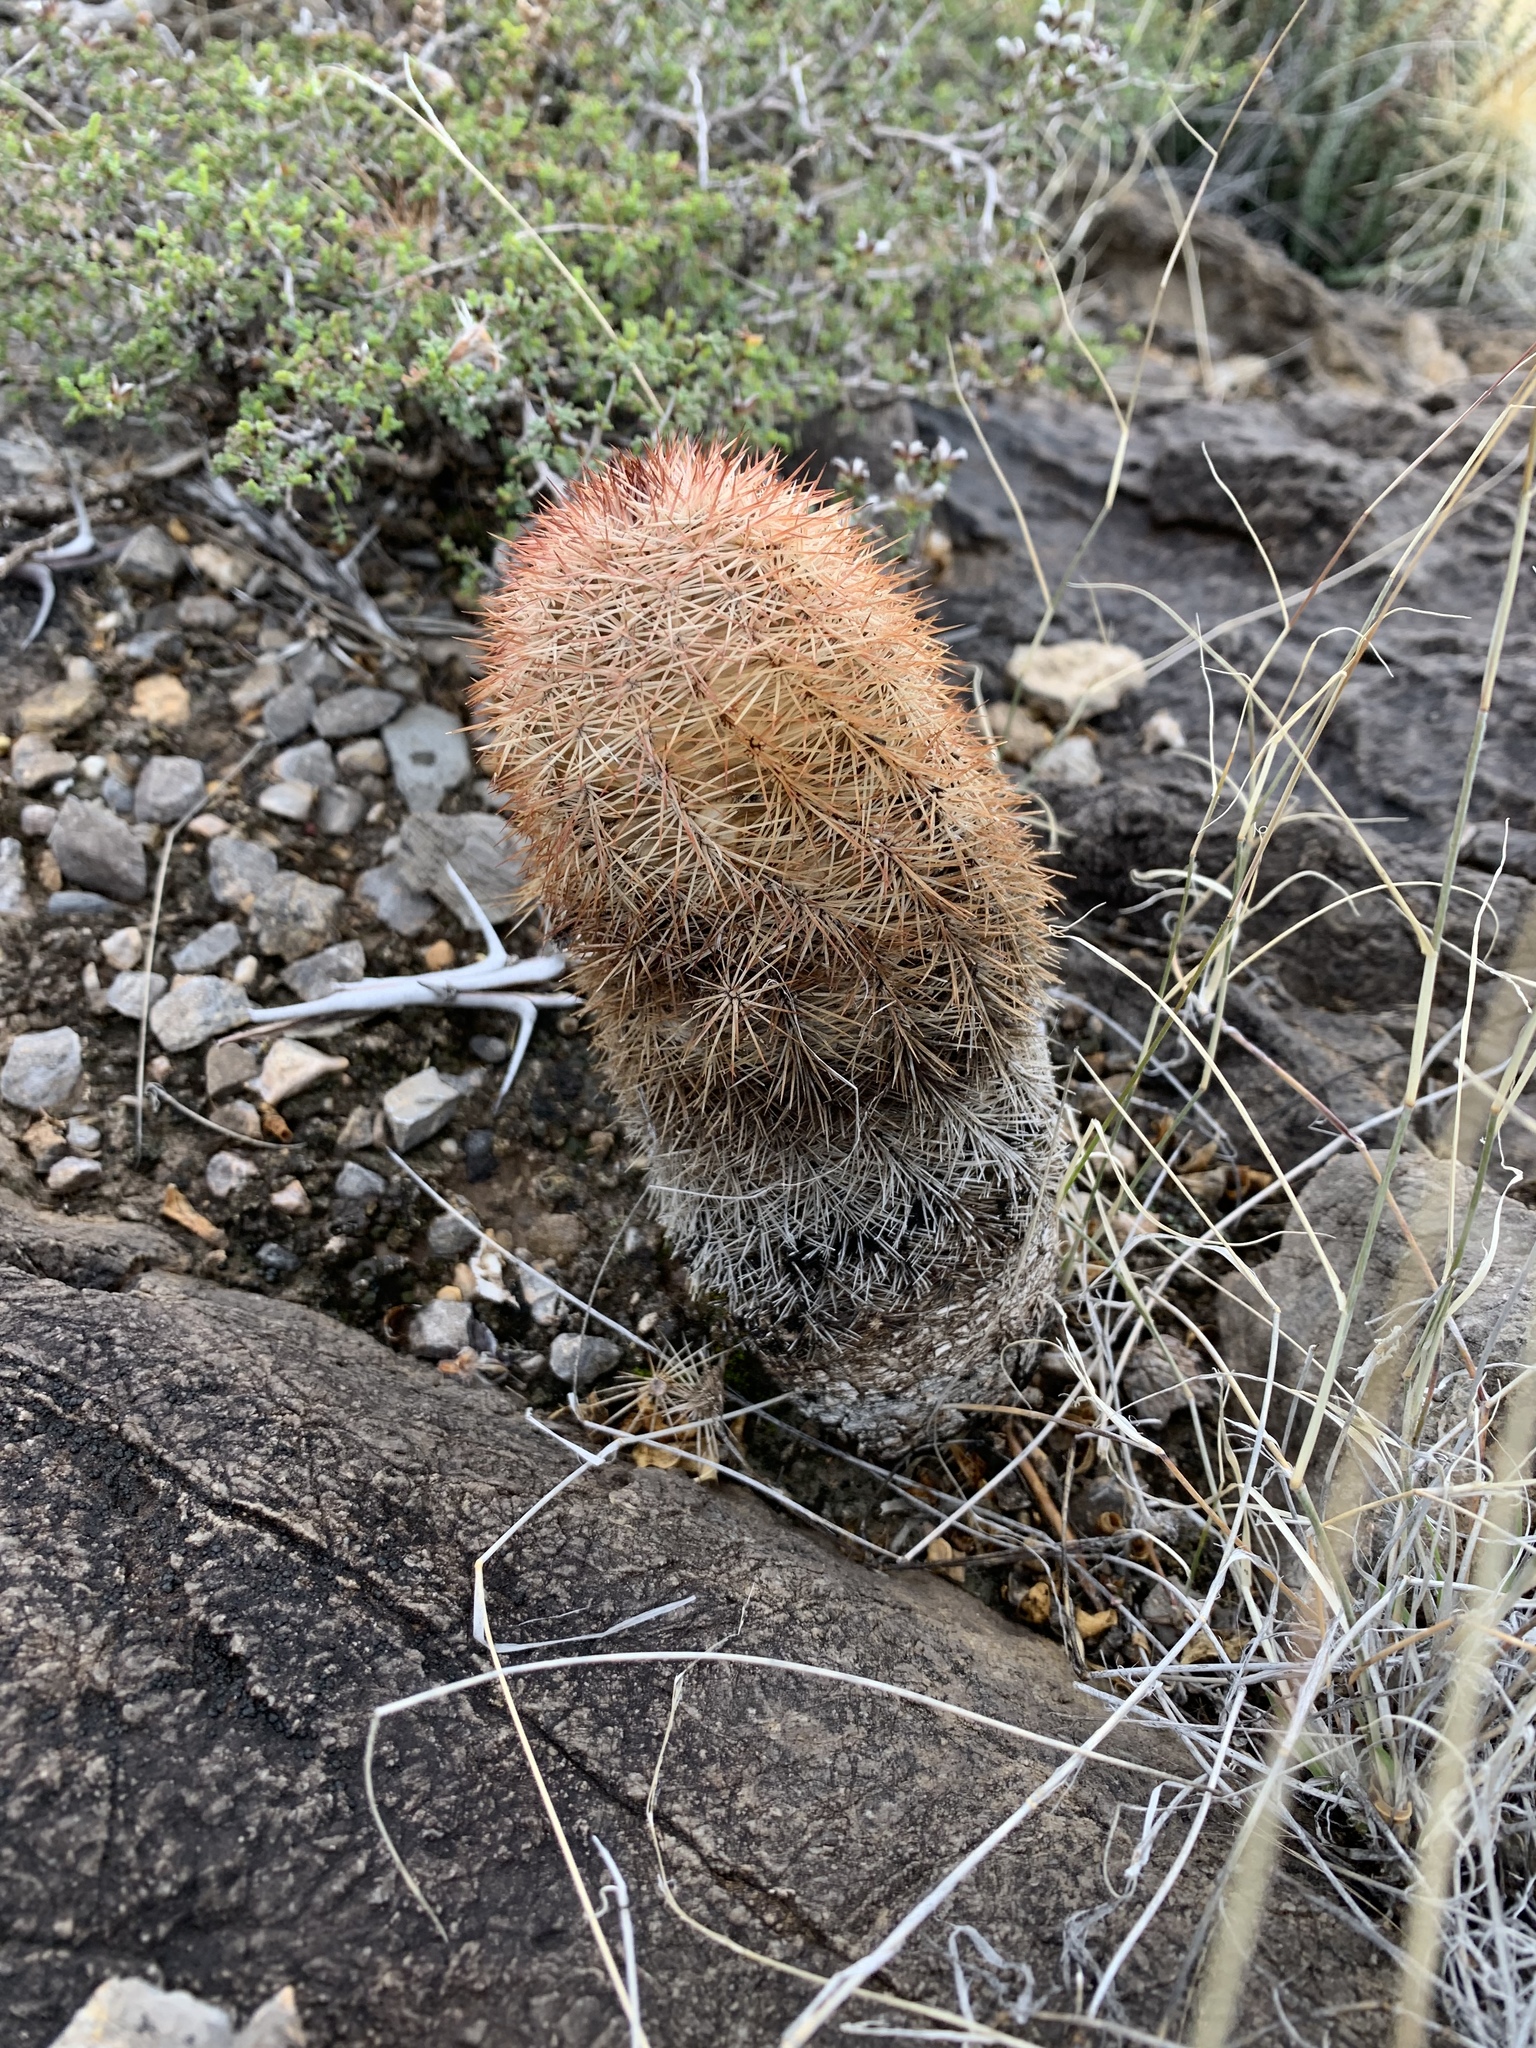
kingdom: Plantae
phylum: Tracheophyta
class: Magnoliopsida
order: Caryophyllales
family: Cactaceae
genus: Echinocereus
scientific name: Echinocereus dasyacanthus
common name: Spiny hedgehog cactus
